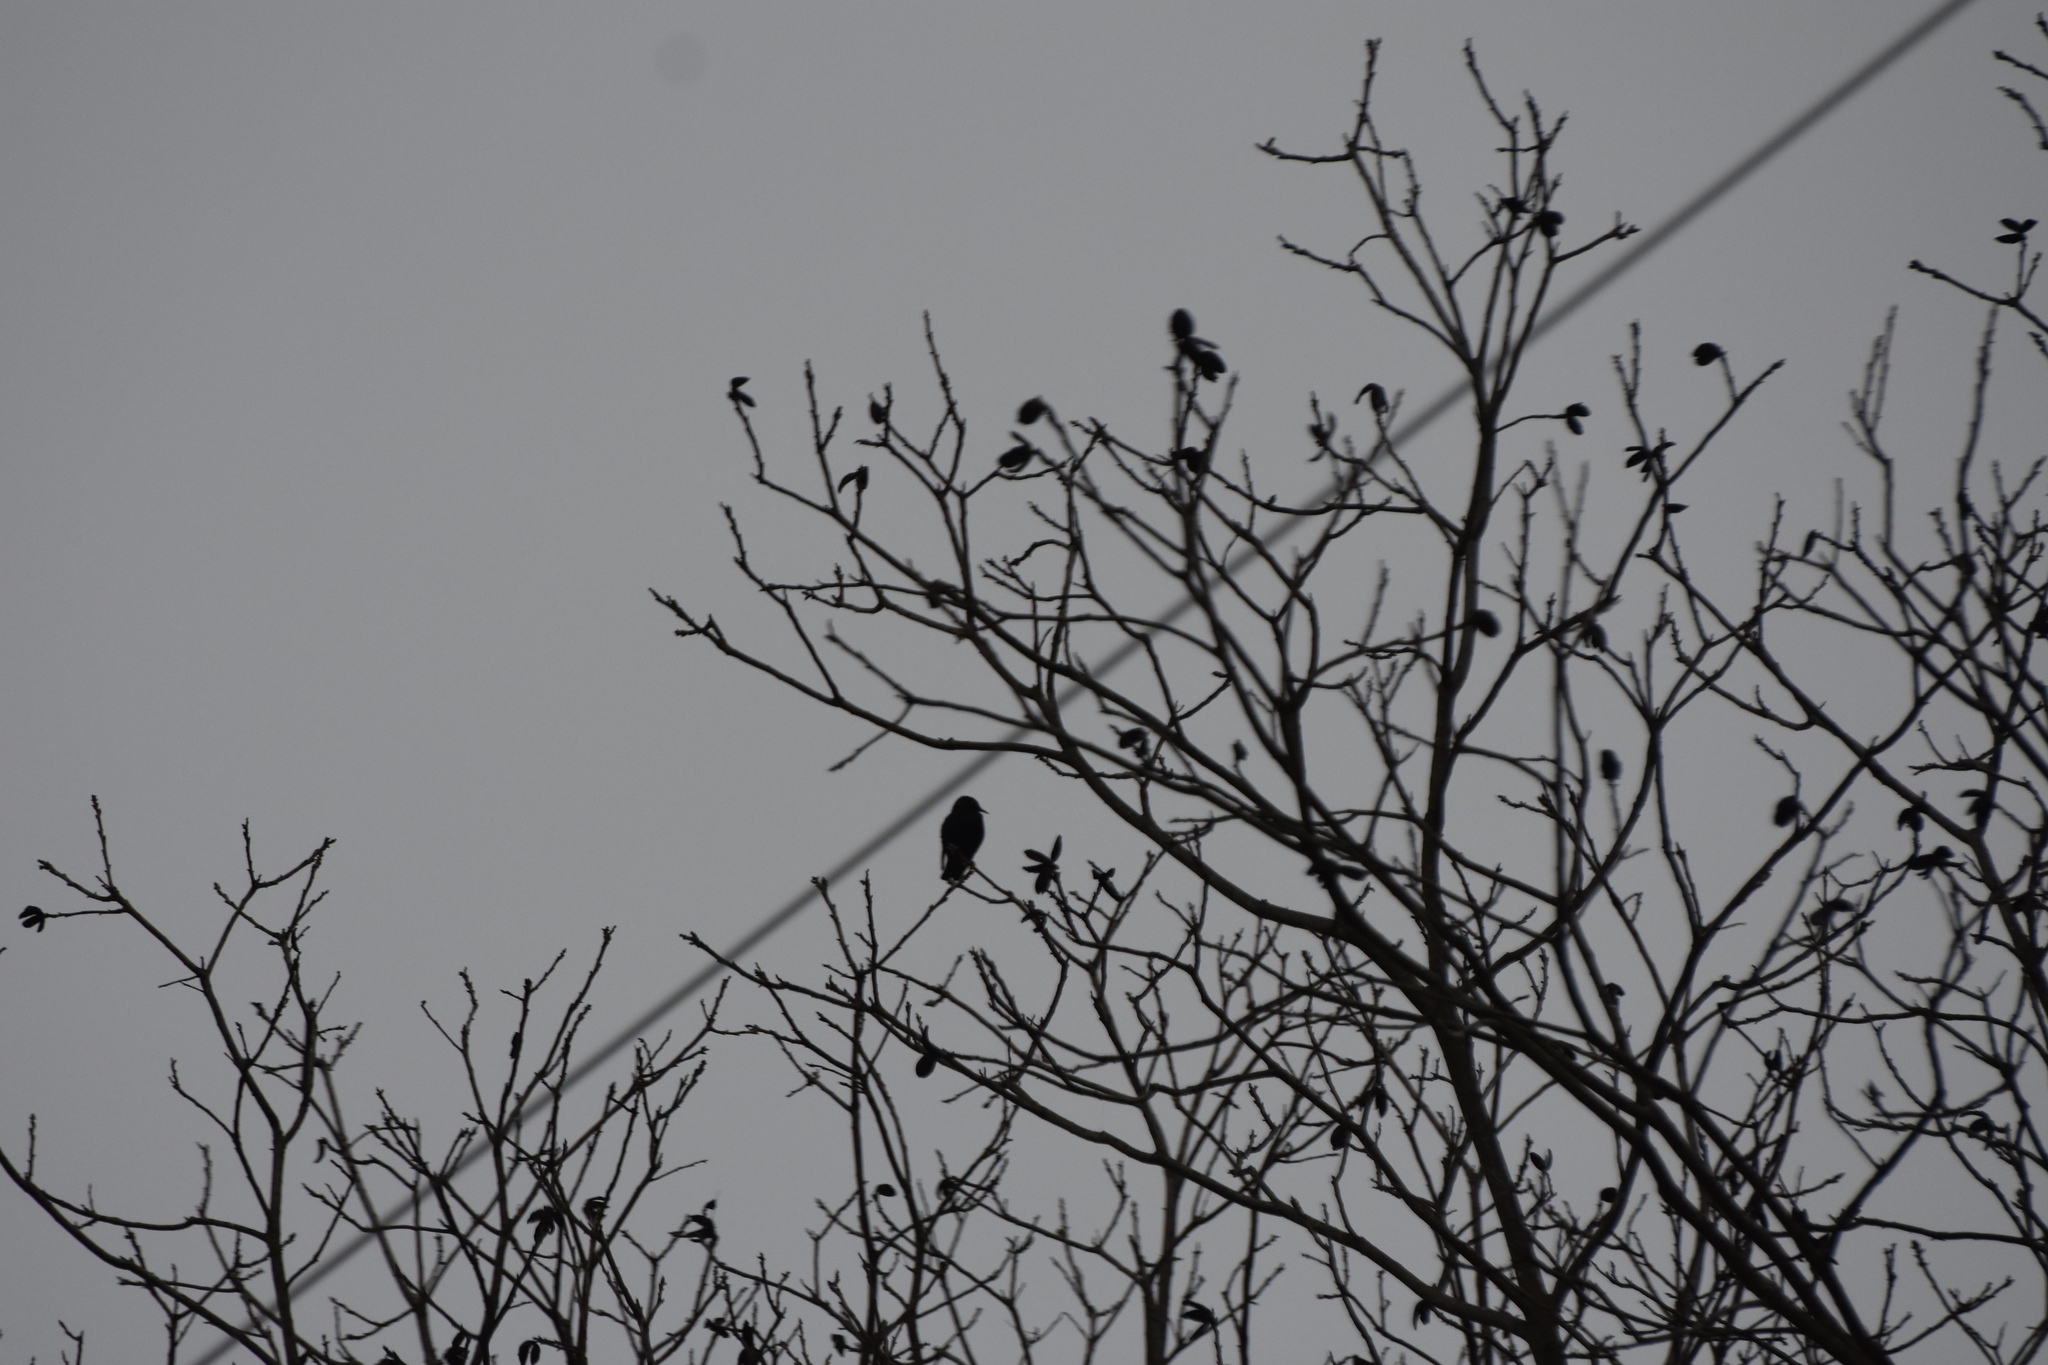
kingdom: Animalia
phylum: Chordata
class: Aves
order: Passeriformes
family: Sturnidae
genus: Sturnus
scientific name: Sturnus vulgaris
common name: Common starling
